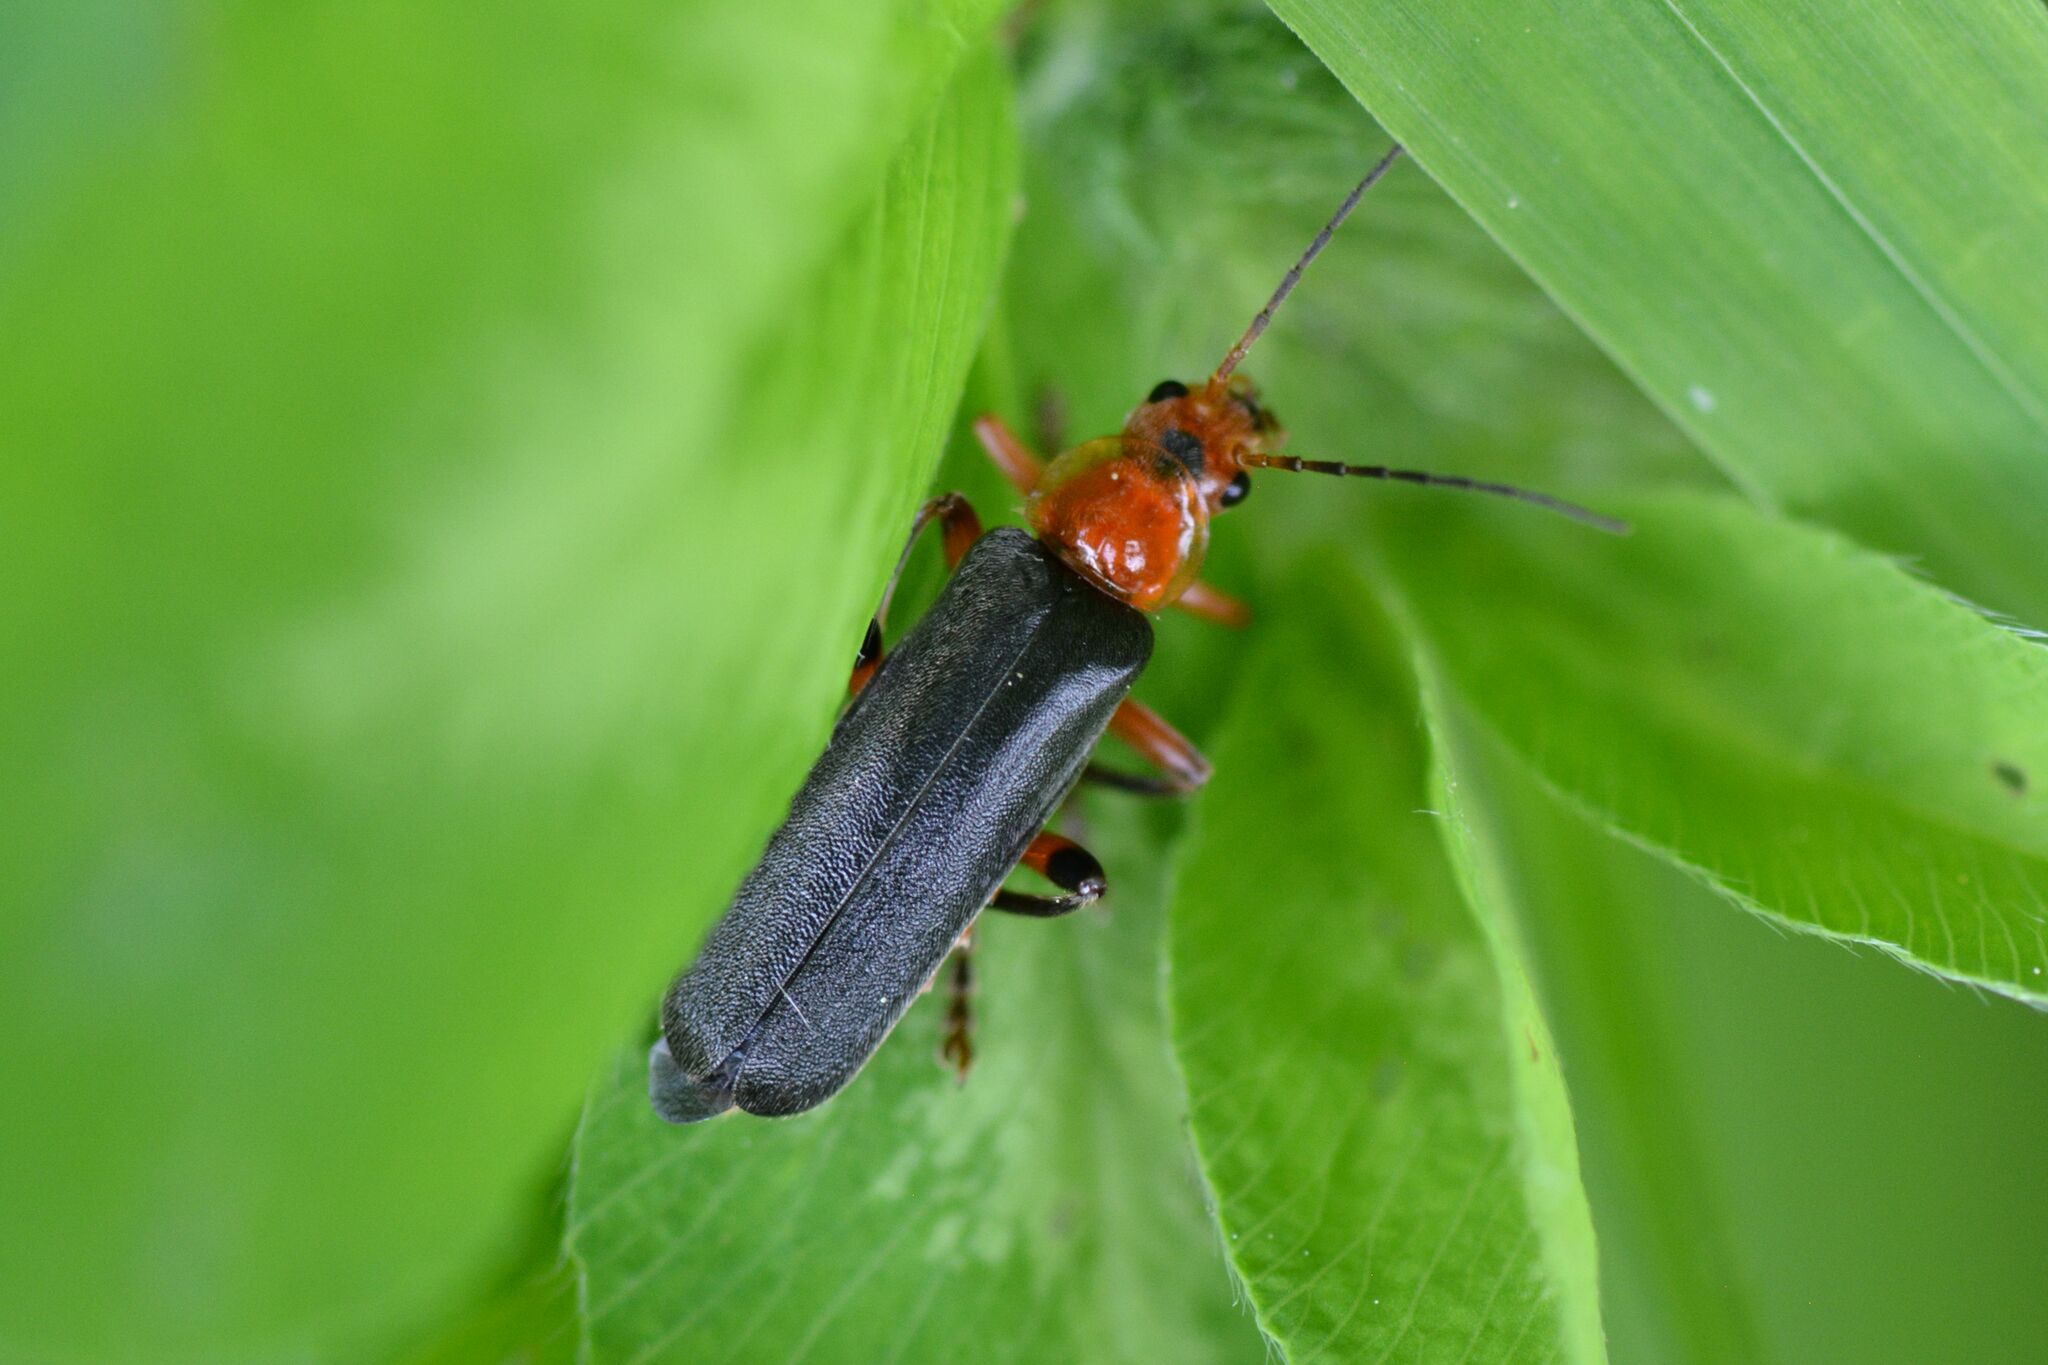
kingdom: Animalia
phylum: Arthropoda
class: Insecta
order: Coleoptera
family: Cantharidae
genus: Cantharis
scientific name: Cantharis livida
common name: Livid soldier beetle
